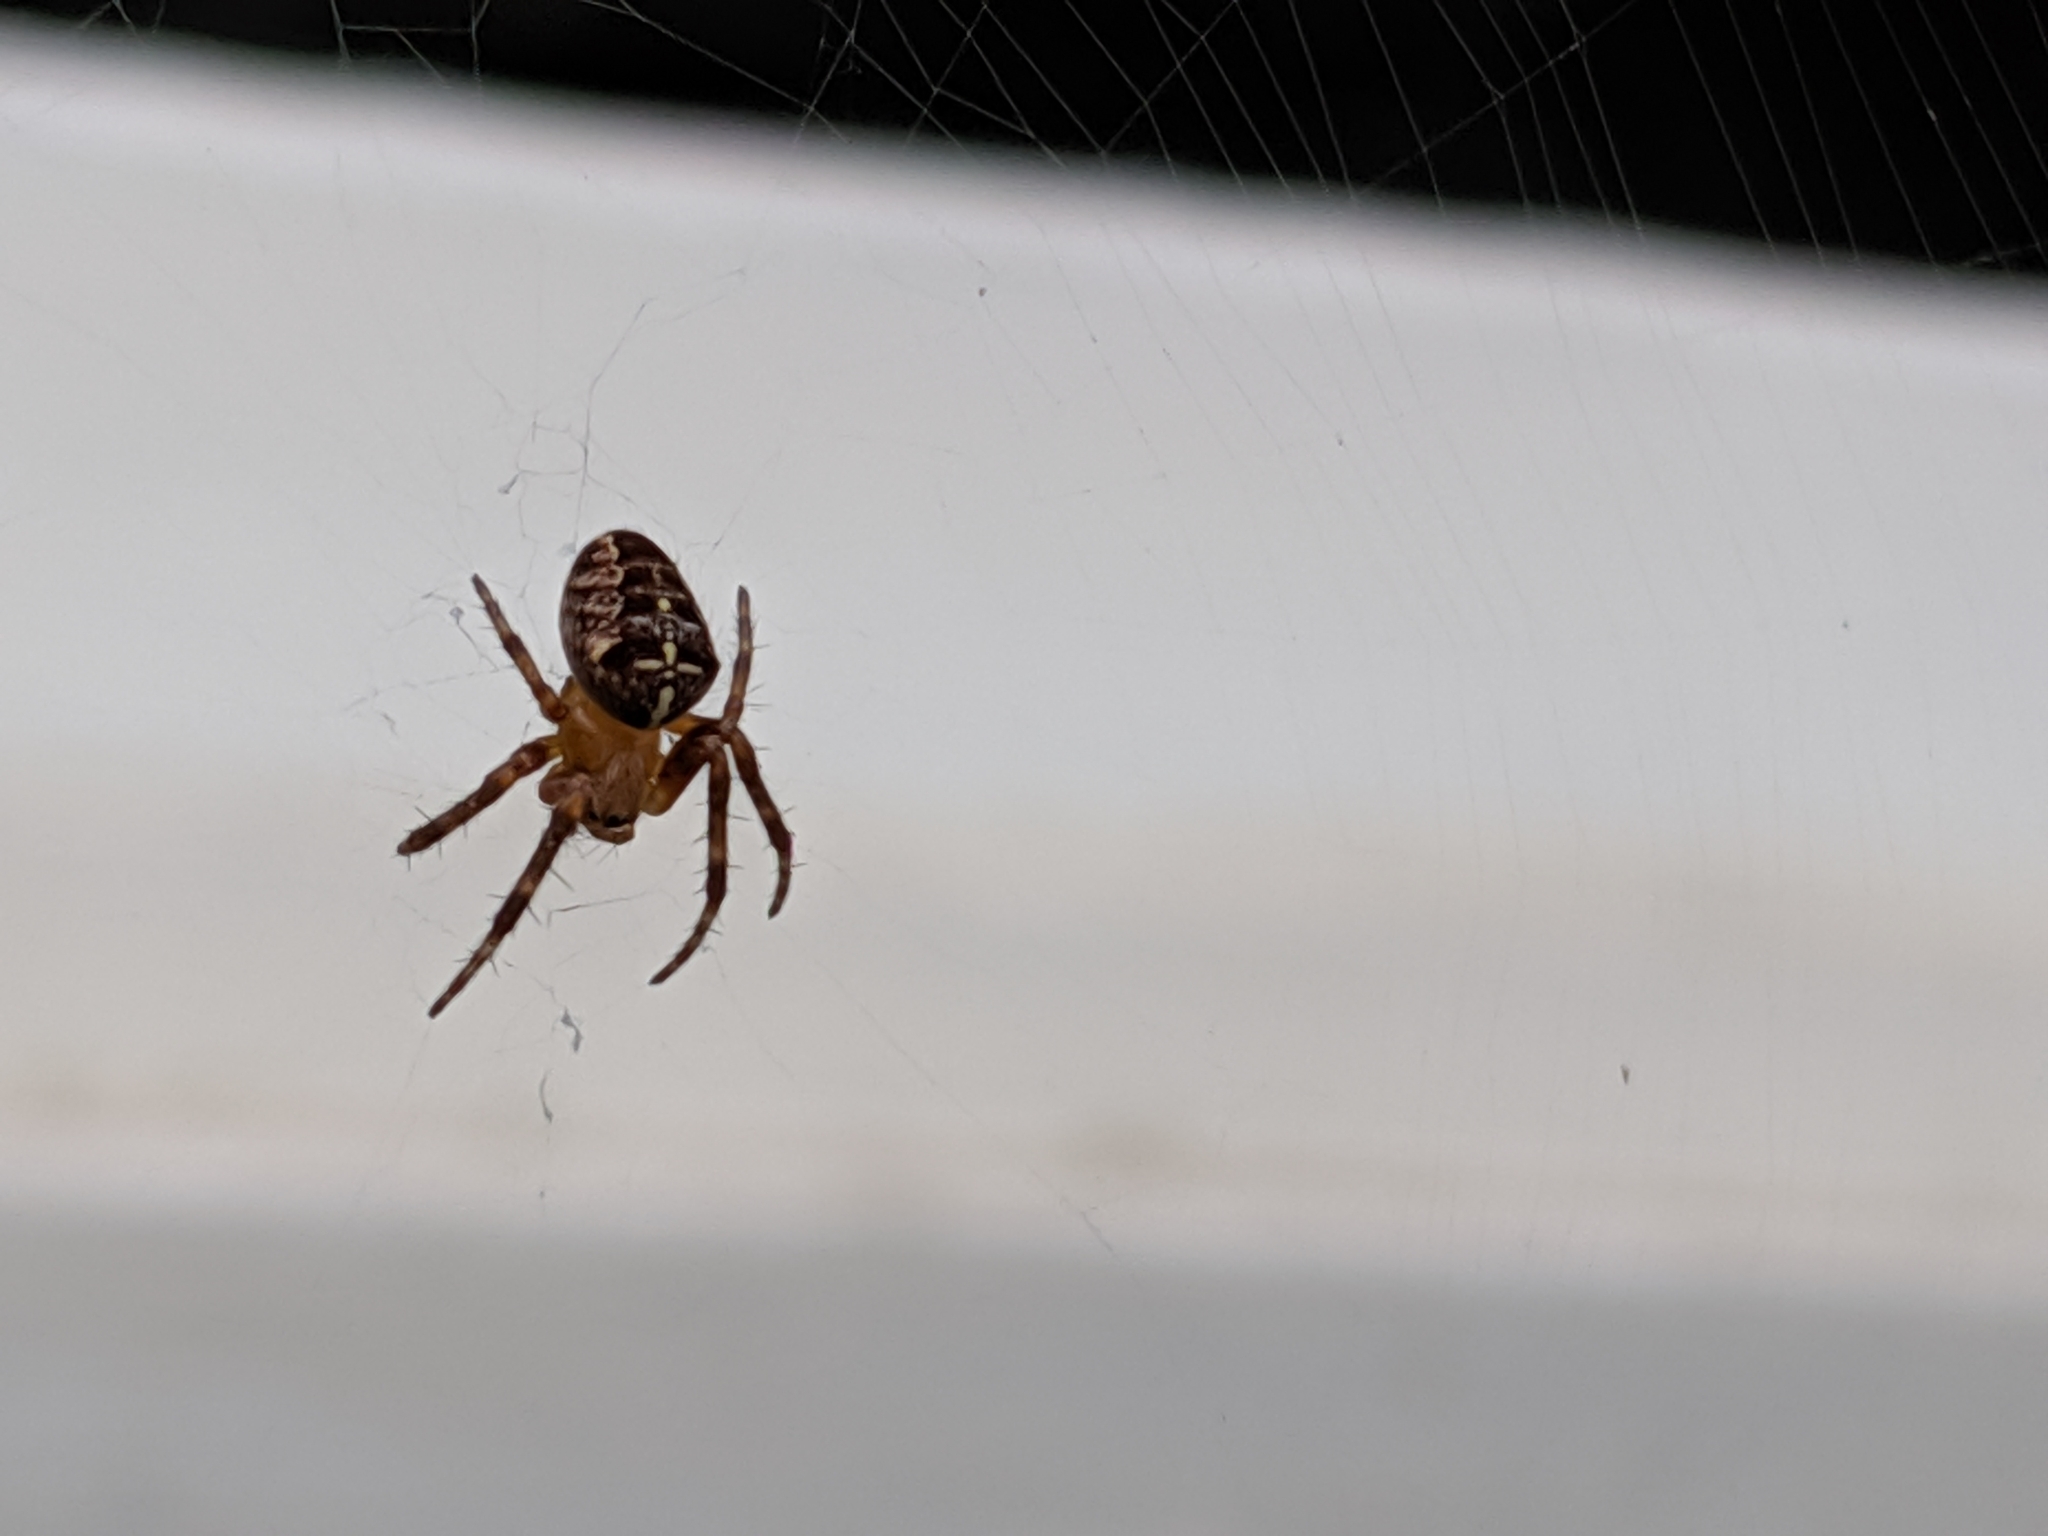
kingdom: Animalia
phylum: Arthropoda
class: Arachnida
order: Araneae
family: Araneidae
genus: Araneus
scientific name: Araneus diadematus
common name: Cross orbweaver
